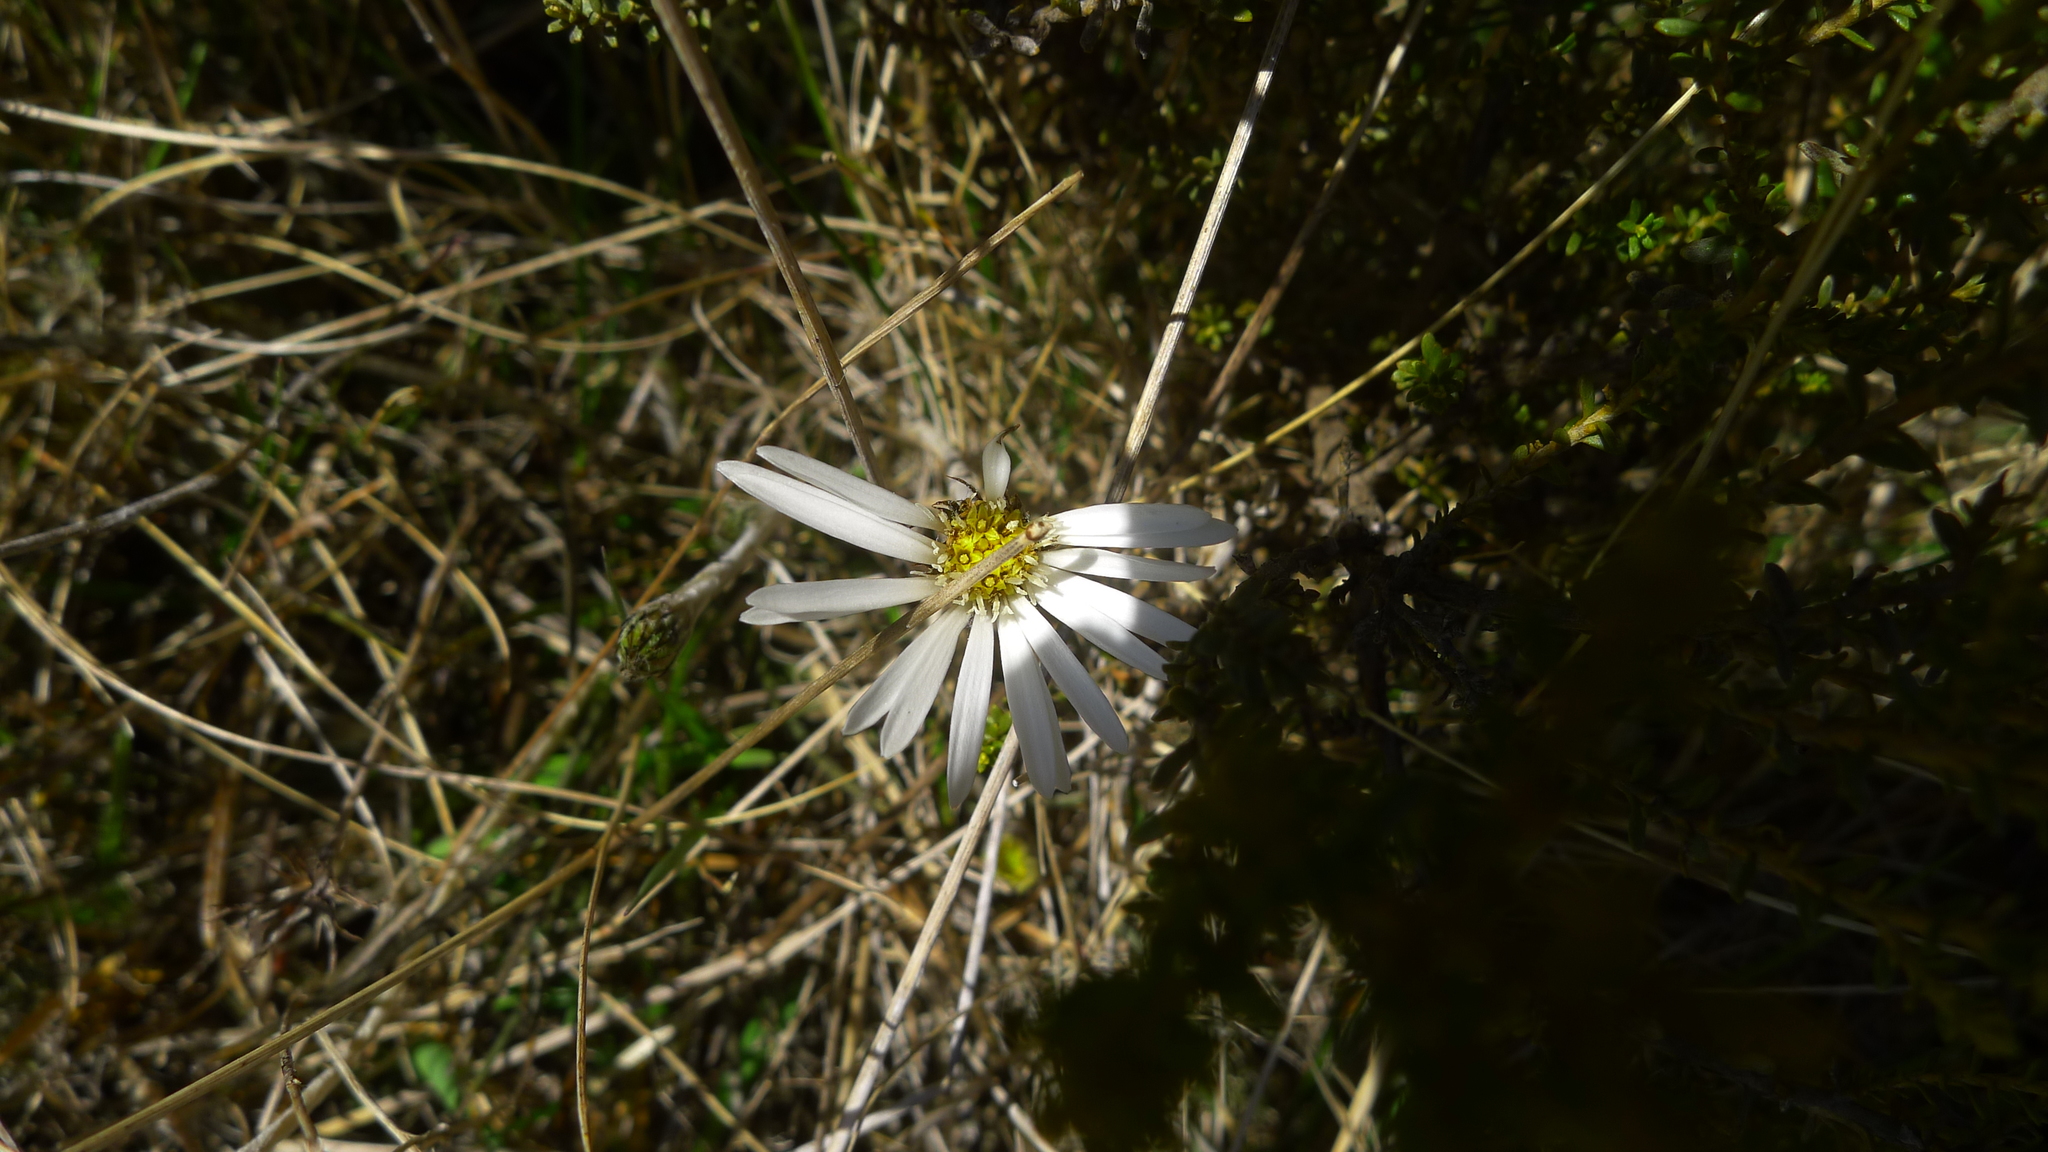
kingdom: Plantae
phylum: Tracheophyta
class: Magnoliopsida
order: Asterales
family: Asteraceae
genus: Celmisia
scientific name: Celmisia gracilenta
